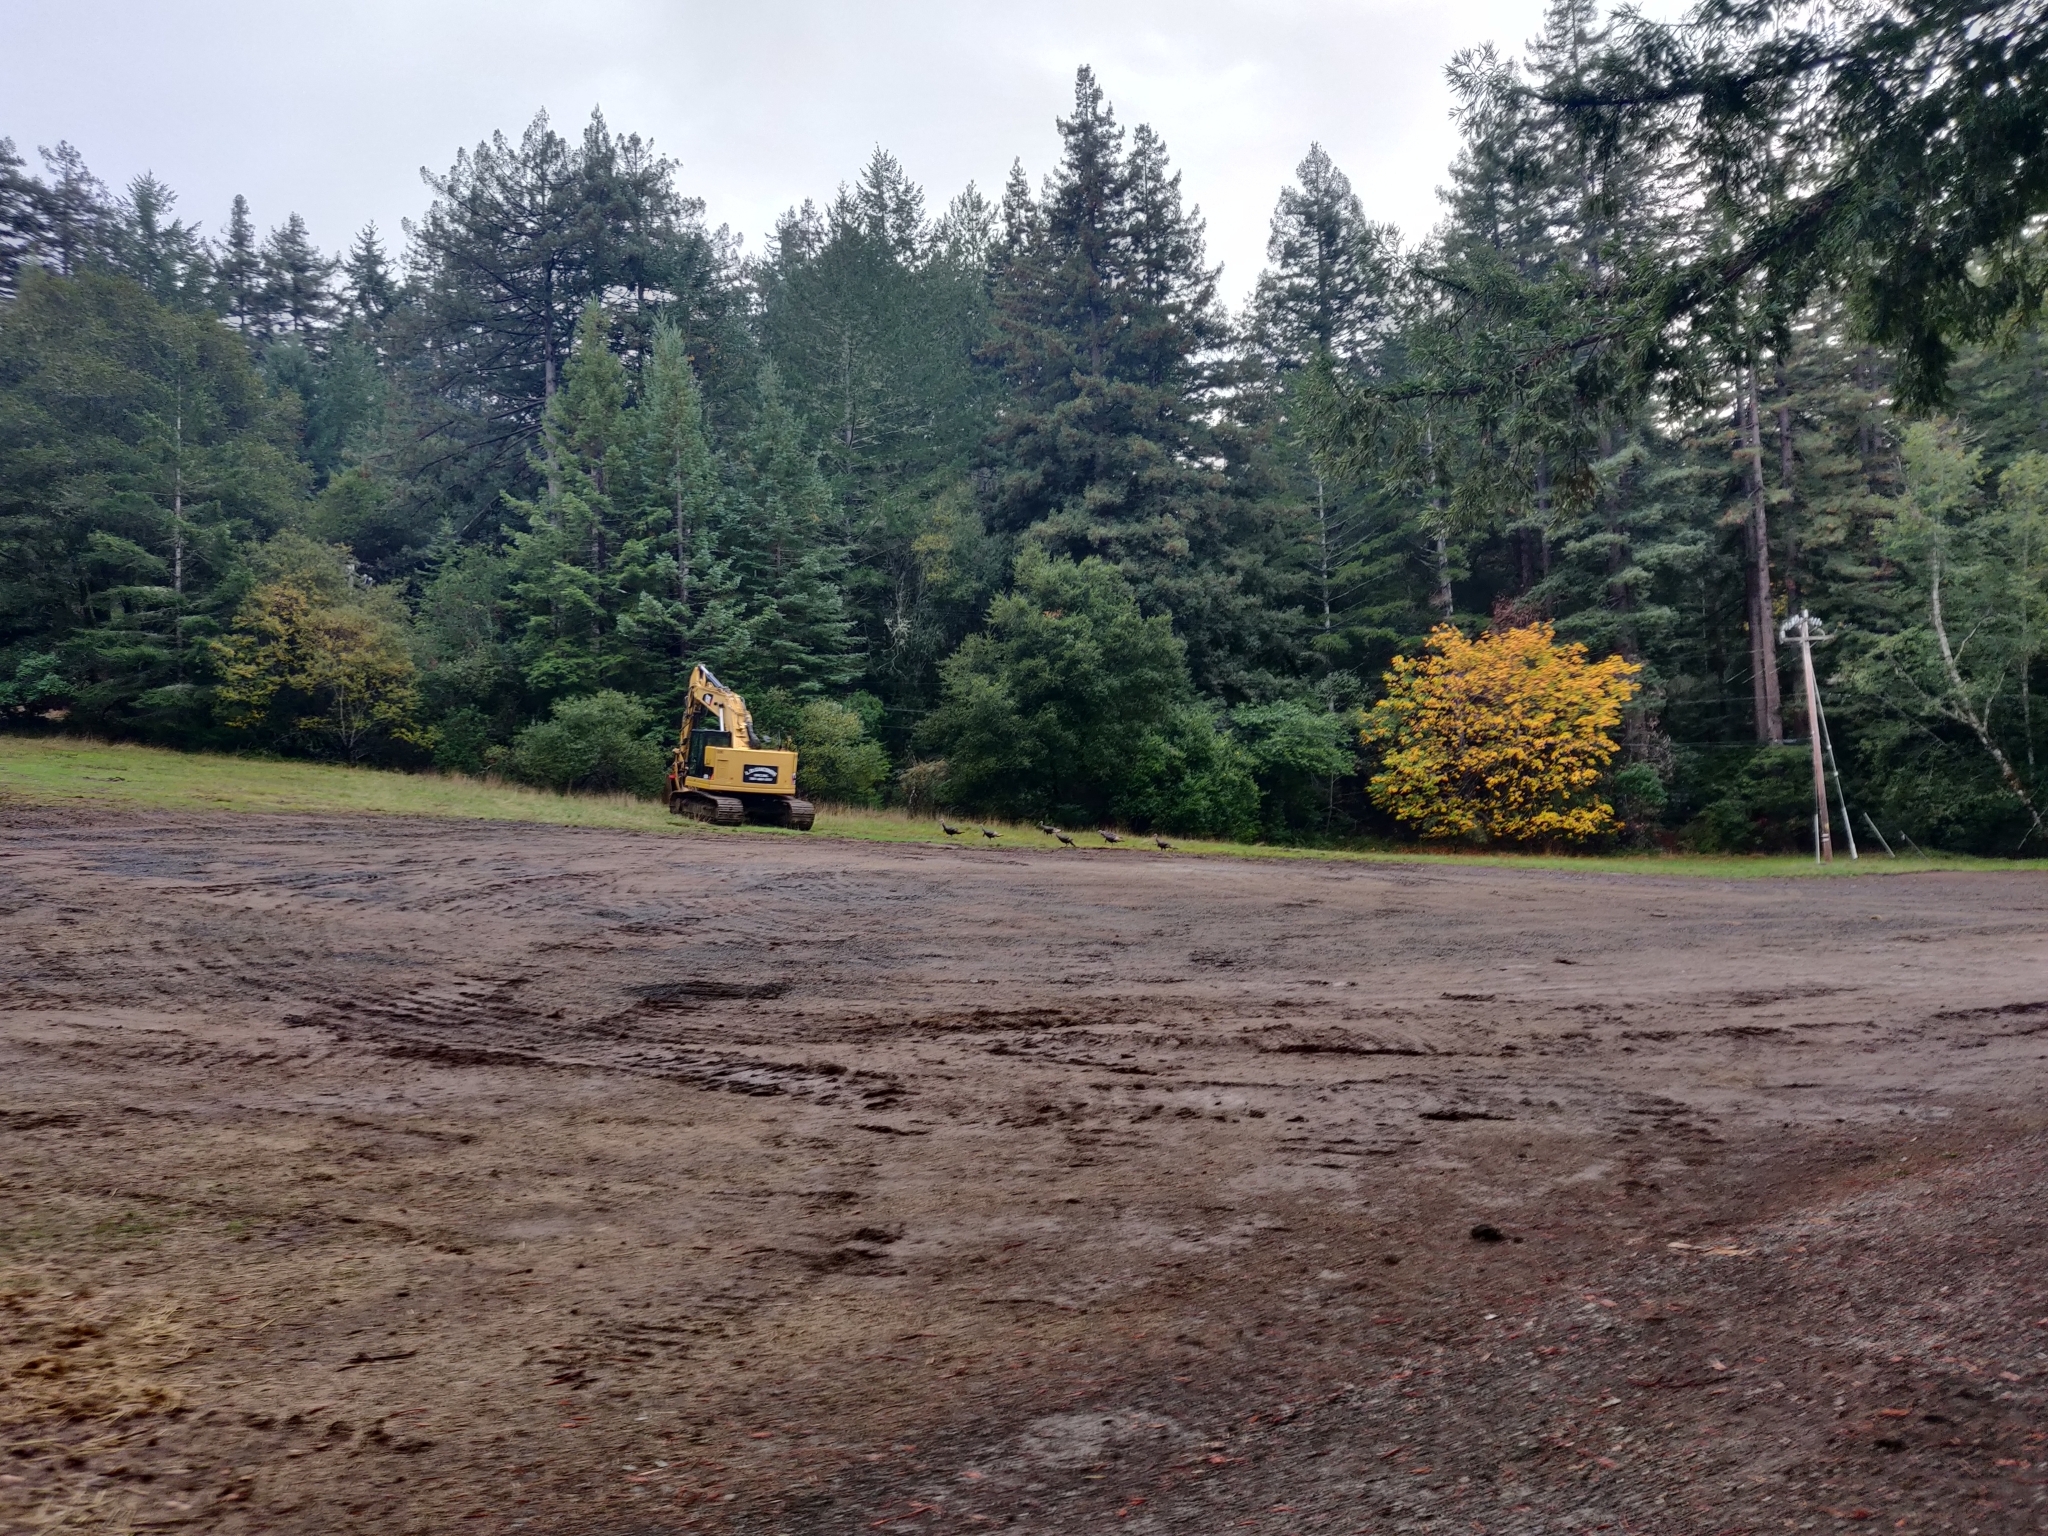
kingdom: Animalia
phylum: Chordata
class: Aves
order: Galliformes
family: Phasianidae
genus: Meleagris
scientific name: Meleagris gallopavo
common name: Wild turkey
